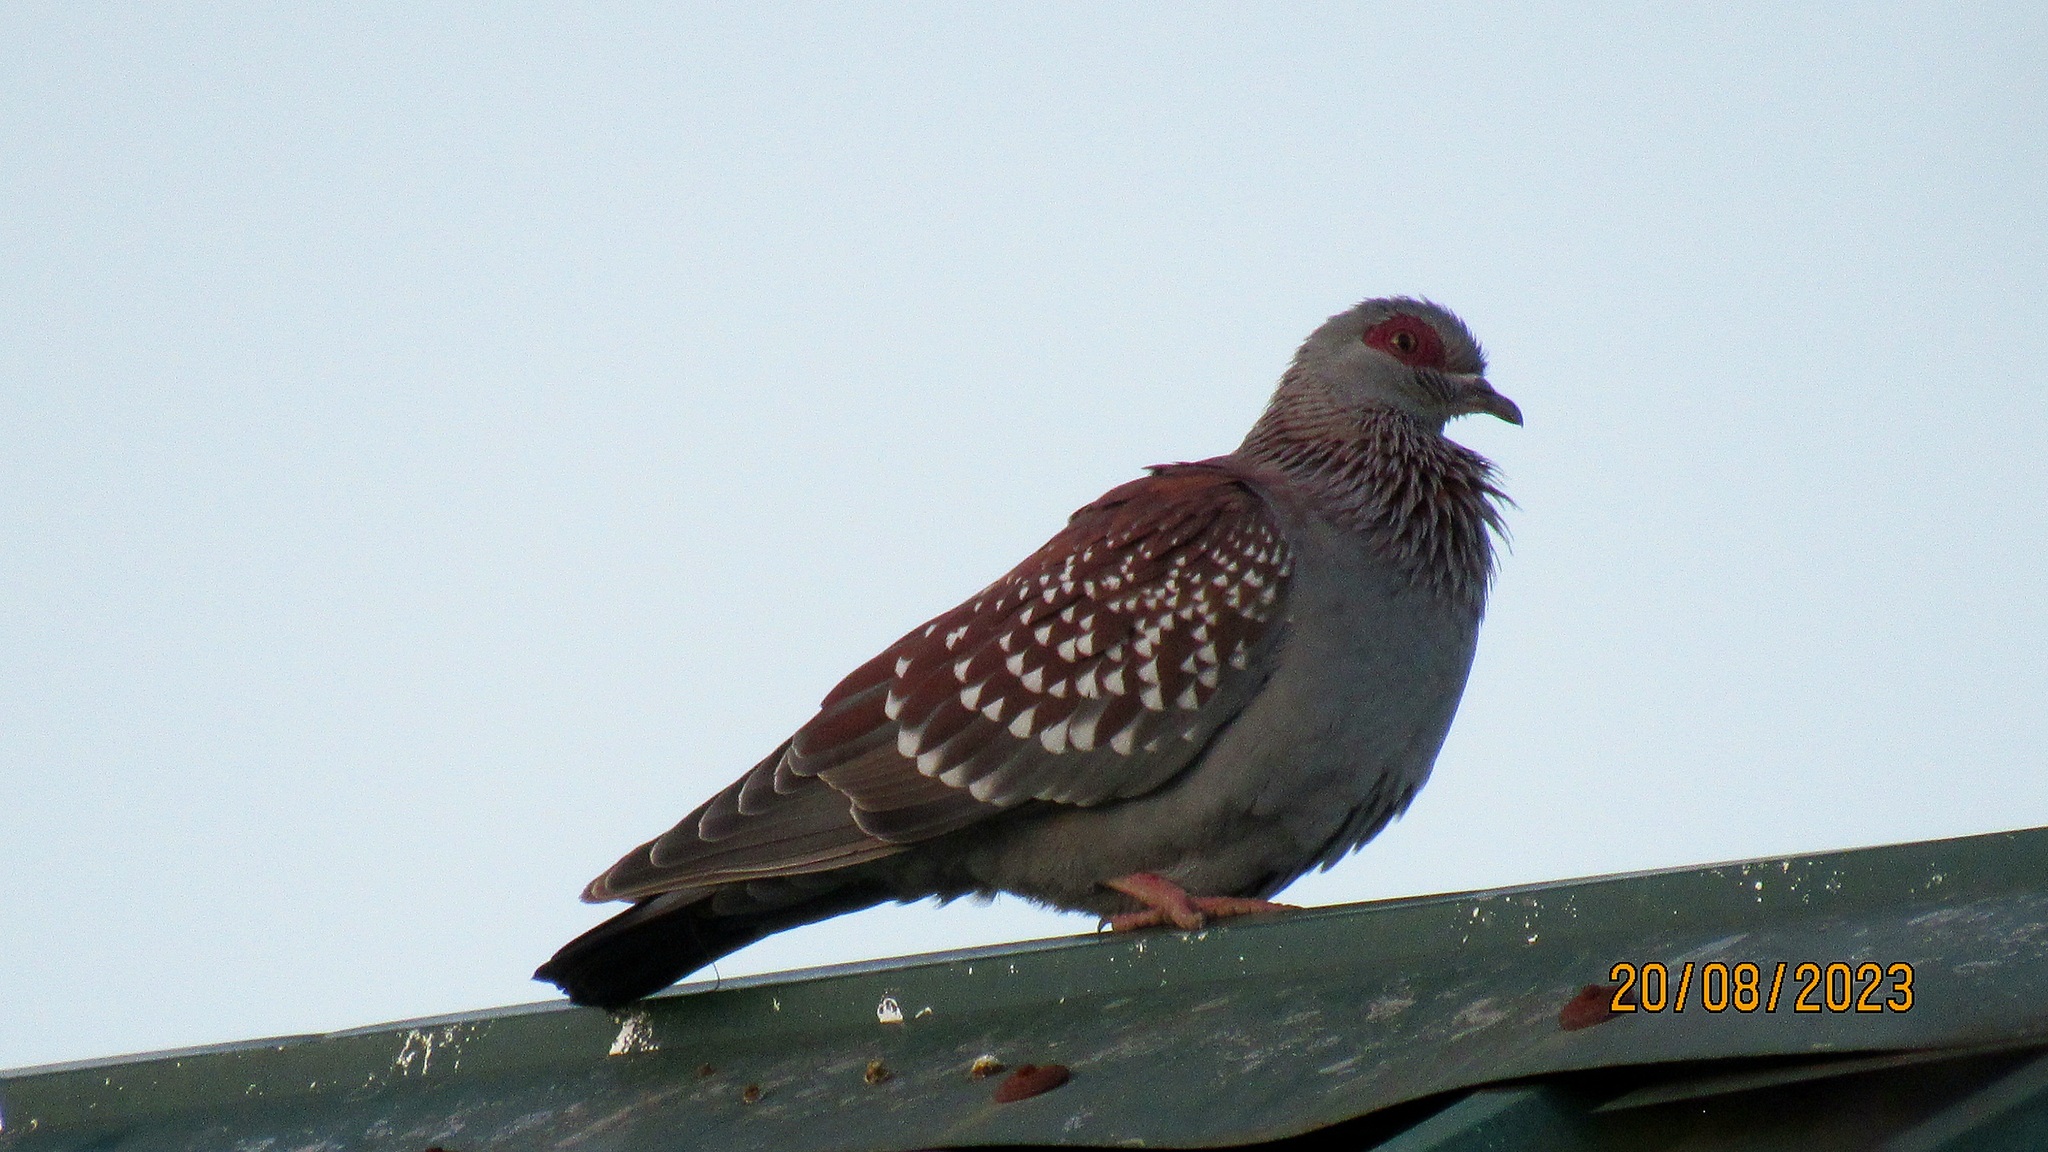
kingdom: Animalia
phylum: Chordata
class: Aves
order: Columbiformes
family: Columbidae
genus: Columba
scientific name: Columba guinea
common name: Speckled pigeon
